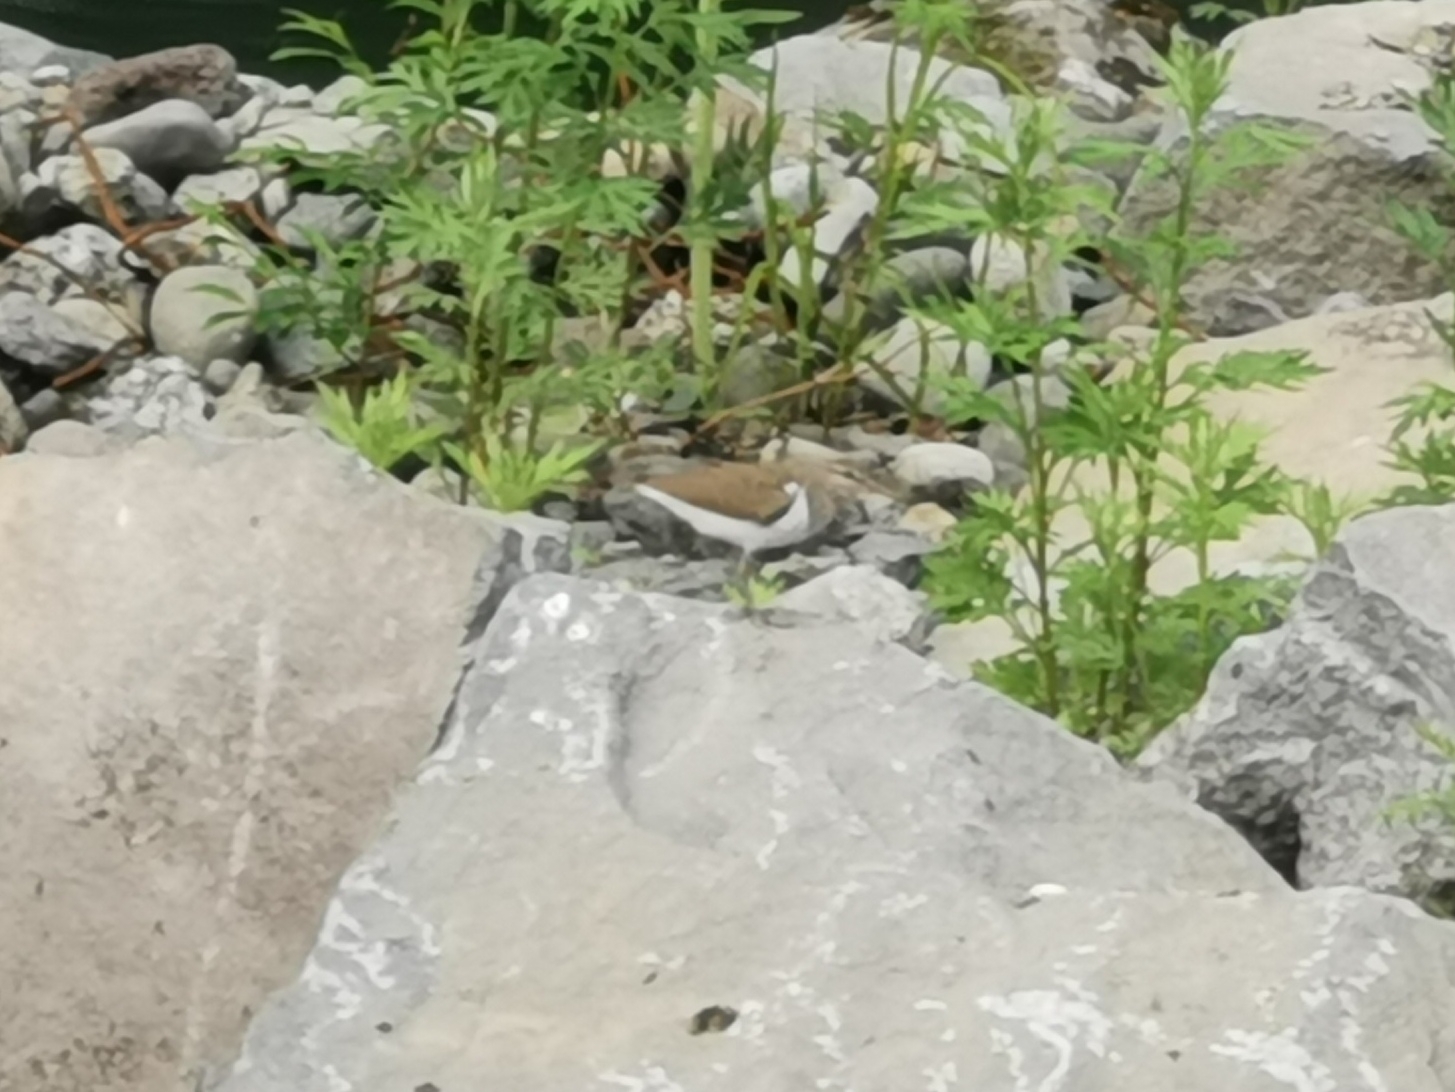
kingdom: Animalia
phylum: Chordata
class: Aves
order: Charadriiformes
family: Scolopacidae
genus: Actitis
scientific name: Actitis hypoleucos
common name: Common sandpiper
